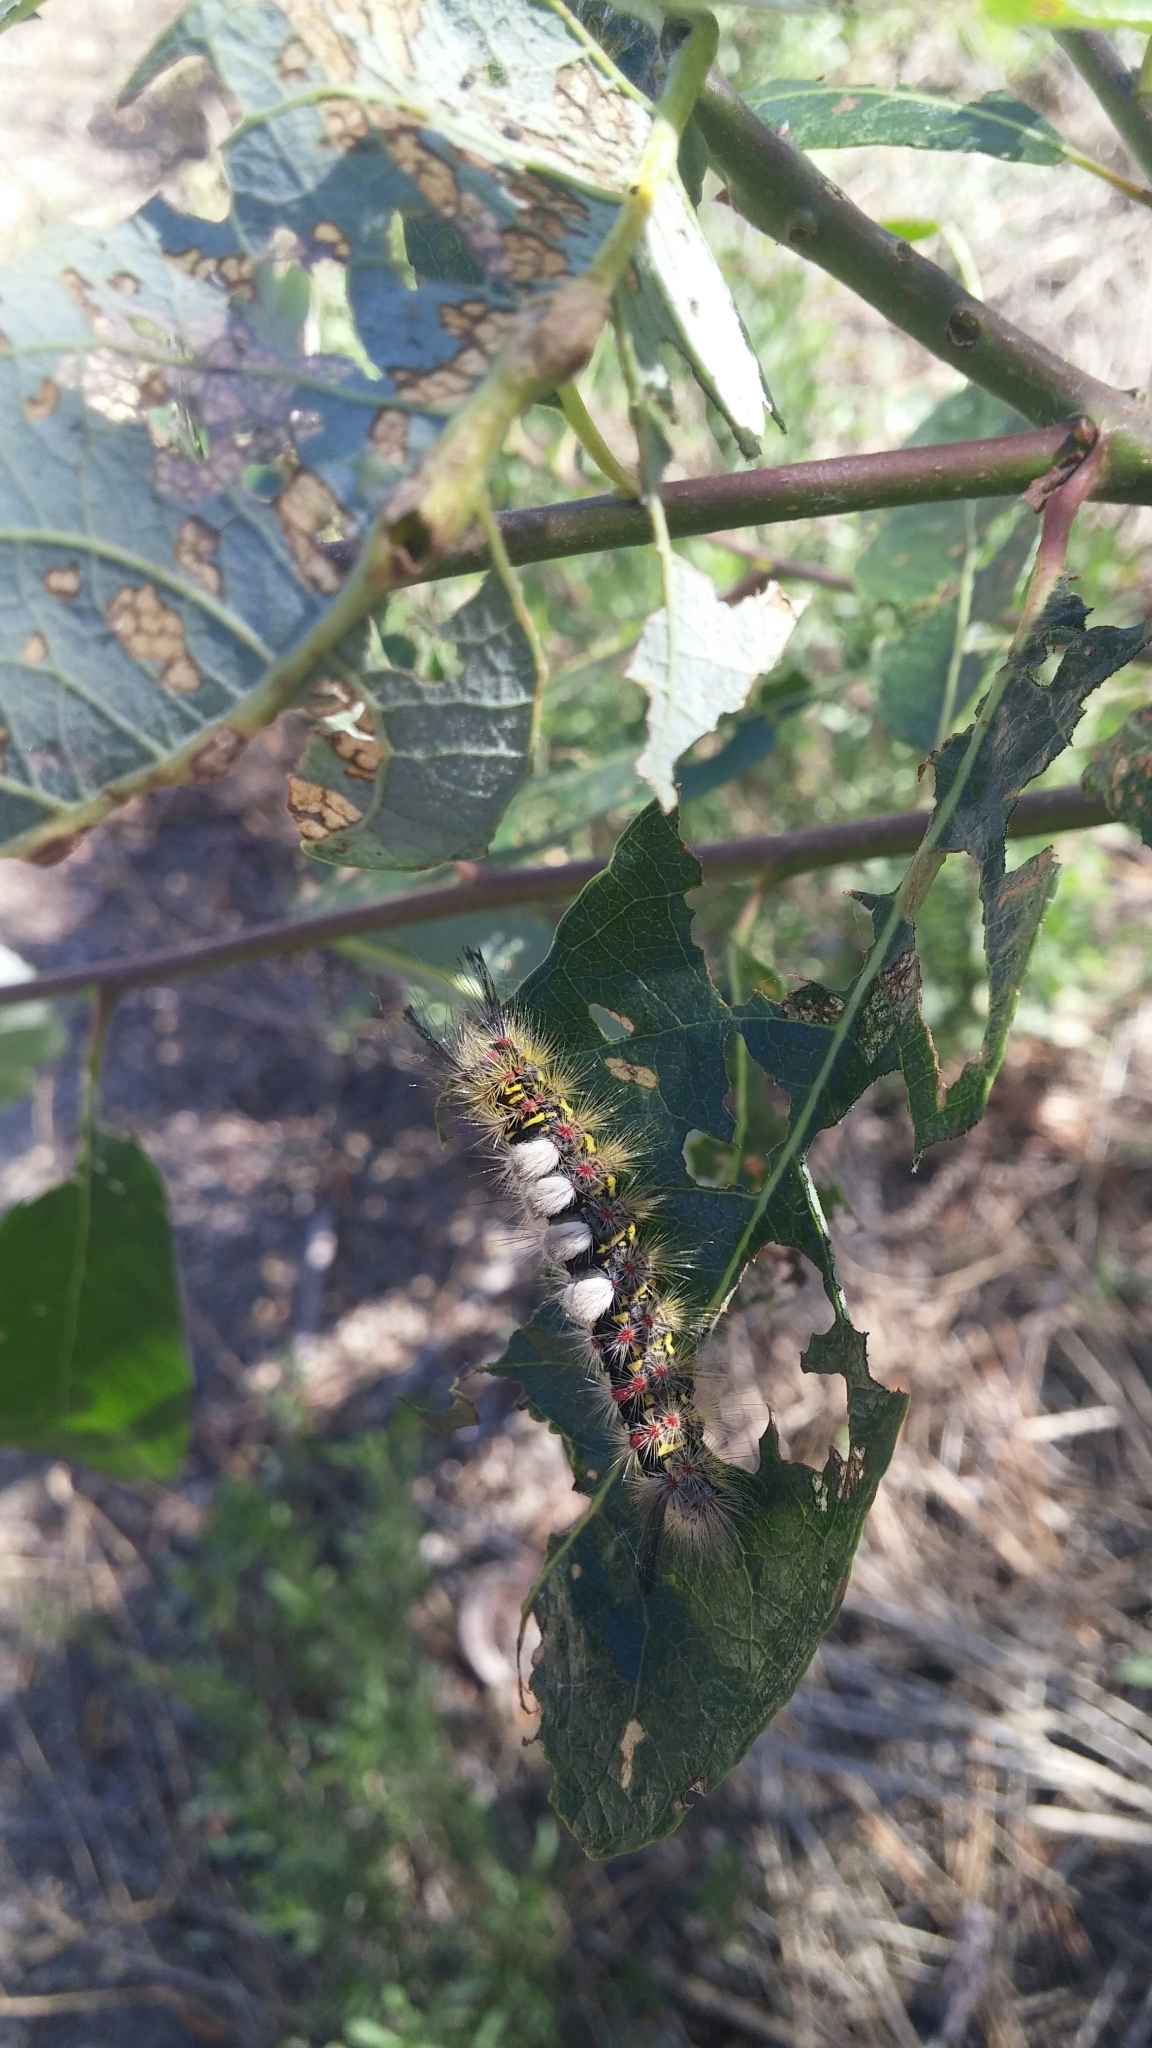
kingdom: Animalia
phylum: Arthropoda
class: Insecta
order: Lepidoptera
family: Erebidae
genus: Orgyia
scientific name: Orgyia vetusta
